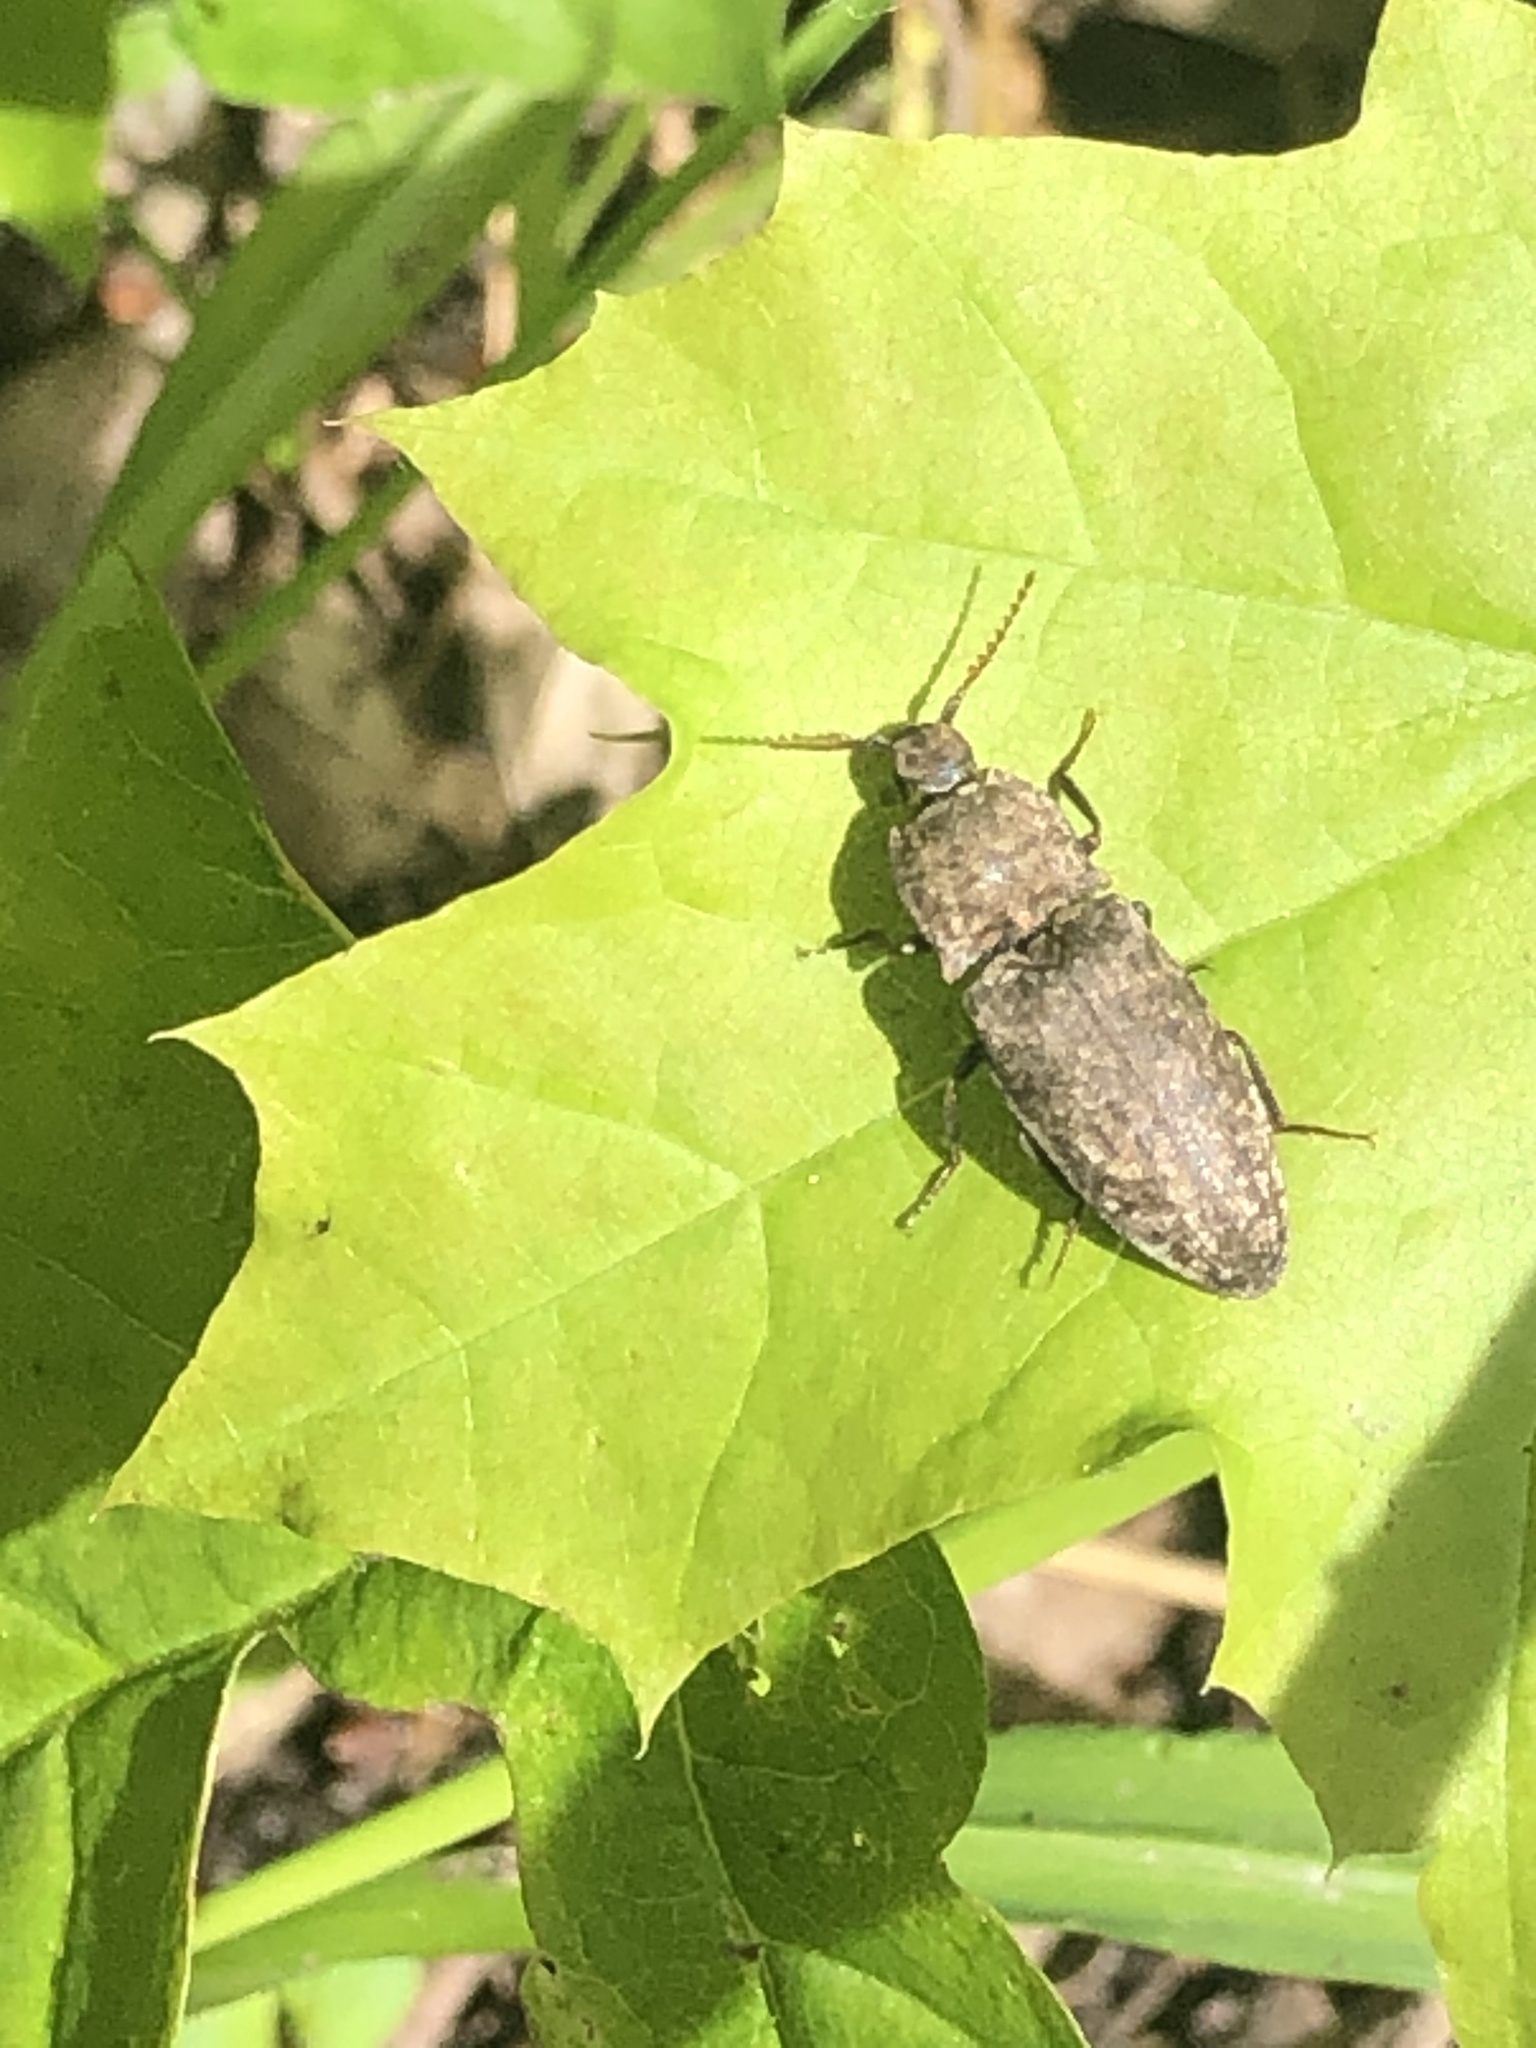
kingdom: Animalia
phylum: Arthropoda
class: Insecta
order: Coleoptera
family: Elateridae
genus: Agrypnus
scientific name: Agrypnus murinus
